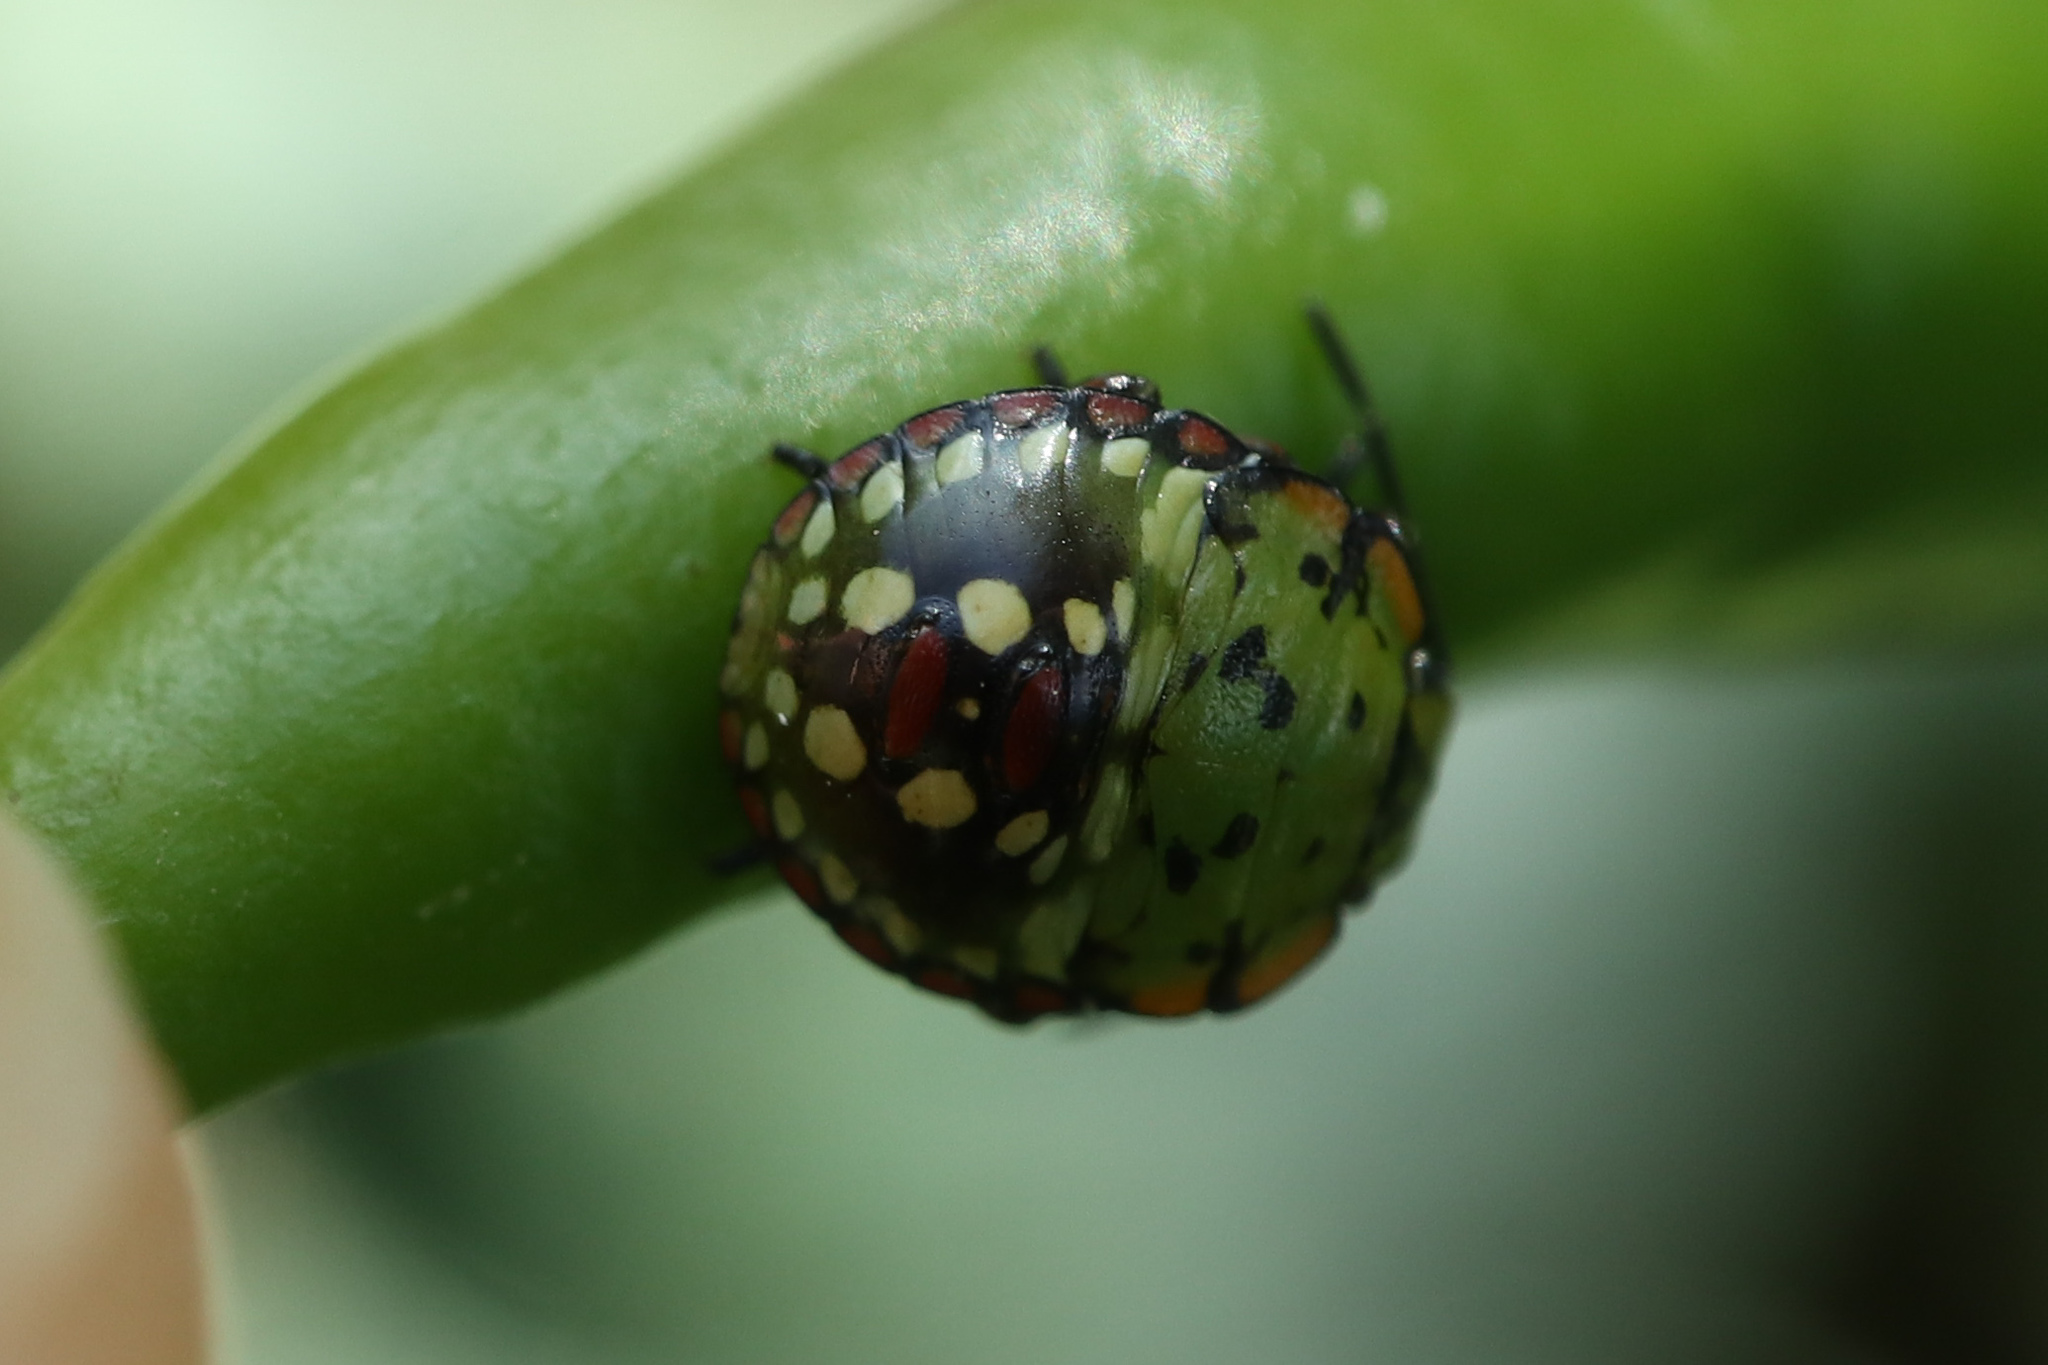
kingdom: Animalia
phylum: Arthropoda
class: Insecta
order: Hemiptera
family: Pentatomidae
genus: Nezara
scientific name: Nezara viridula
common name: Southern green stink bug
